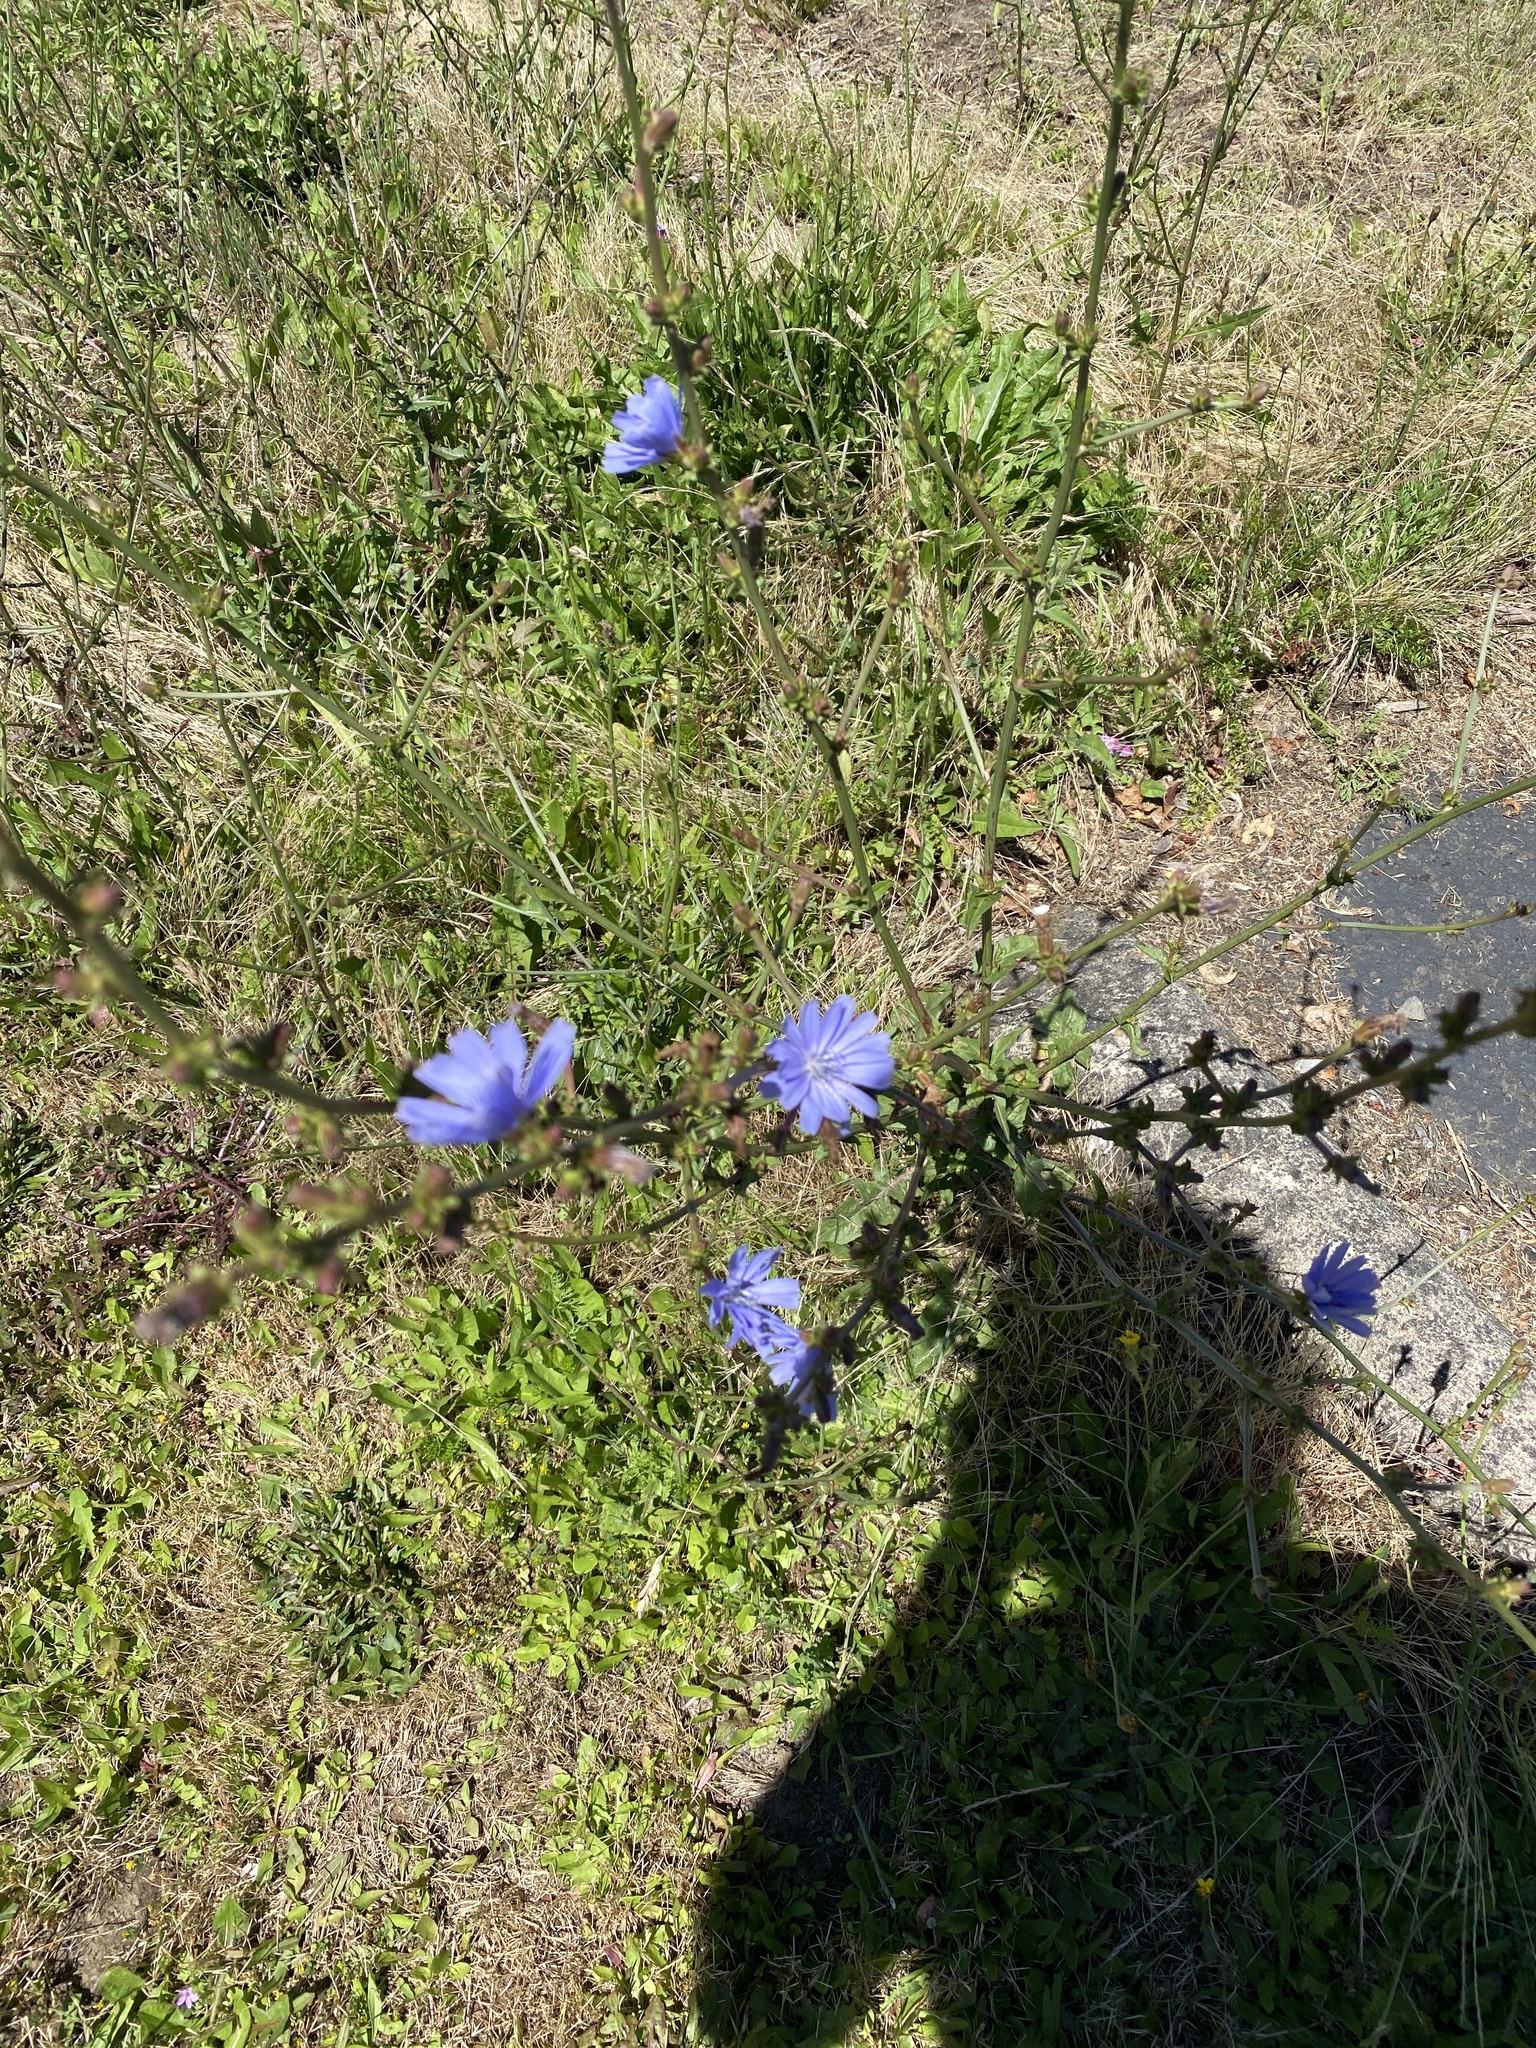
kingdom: Plantae
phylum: Tracheophyta
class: Magnoliopsida
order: Asterales
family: Asteraceae
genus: Cichorium
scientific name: Cichorium intybus
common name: Chicory
